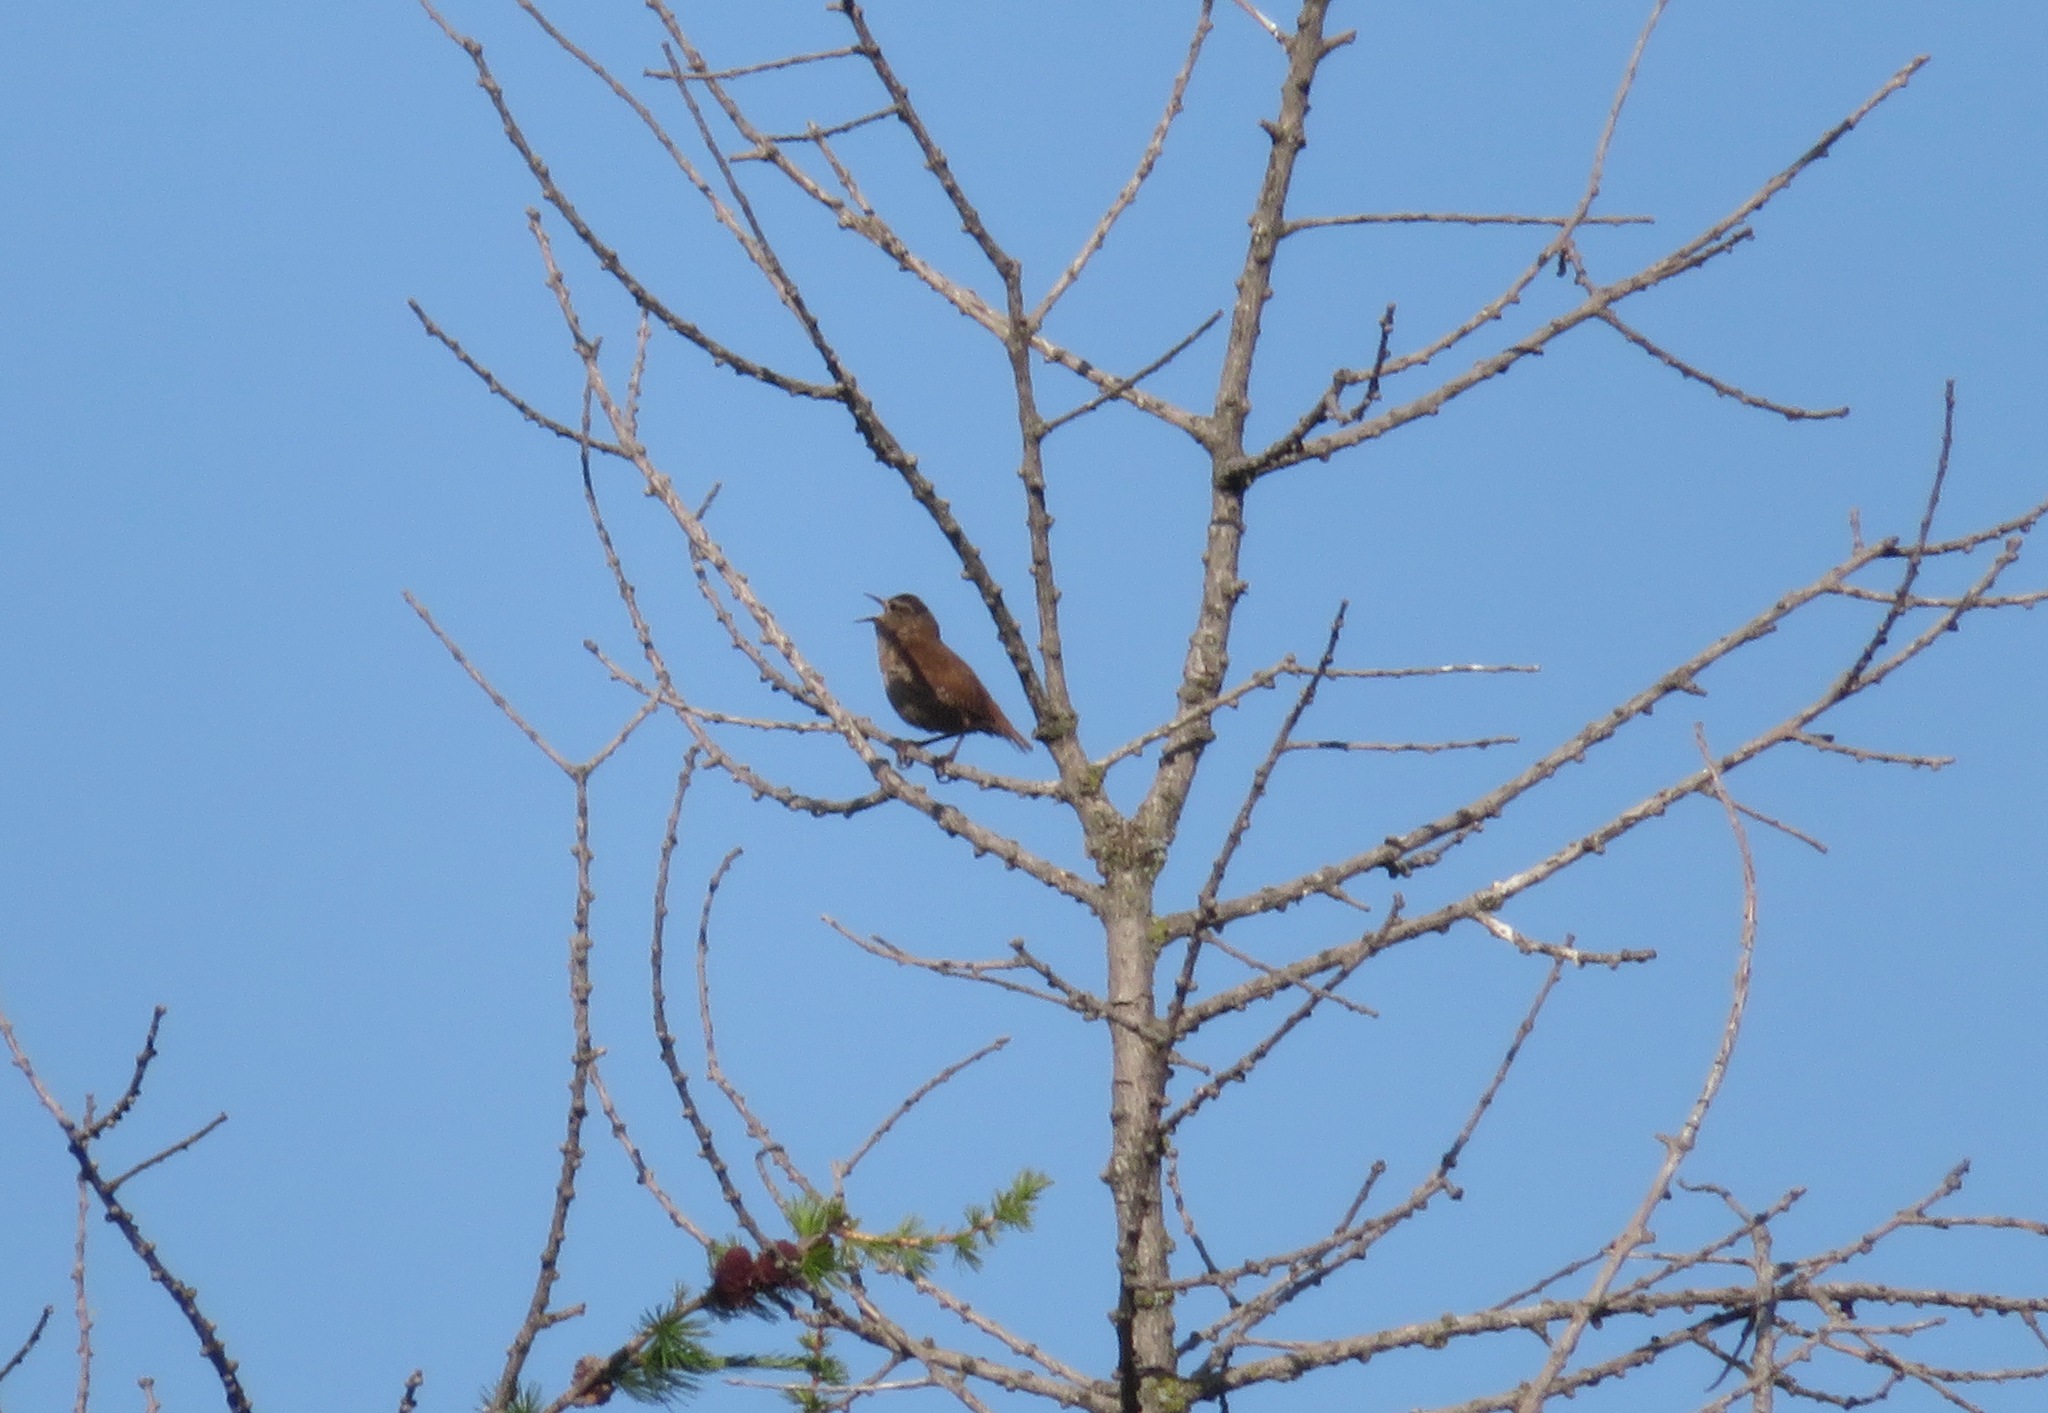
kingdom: Animalia
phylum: Chordata
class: Aves
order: Passeriformes
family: Troglodytidae
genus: Troglodytes
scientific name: Troglodytes troglodytes
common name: Eurasian wren
